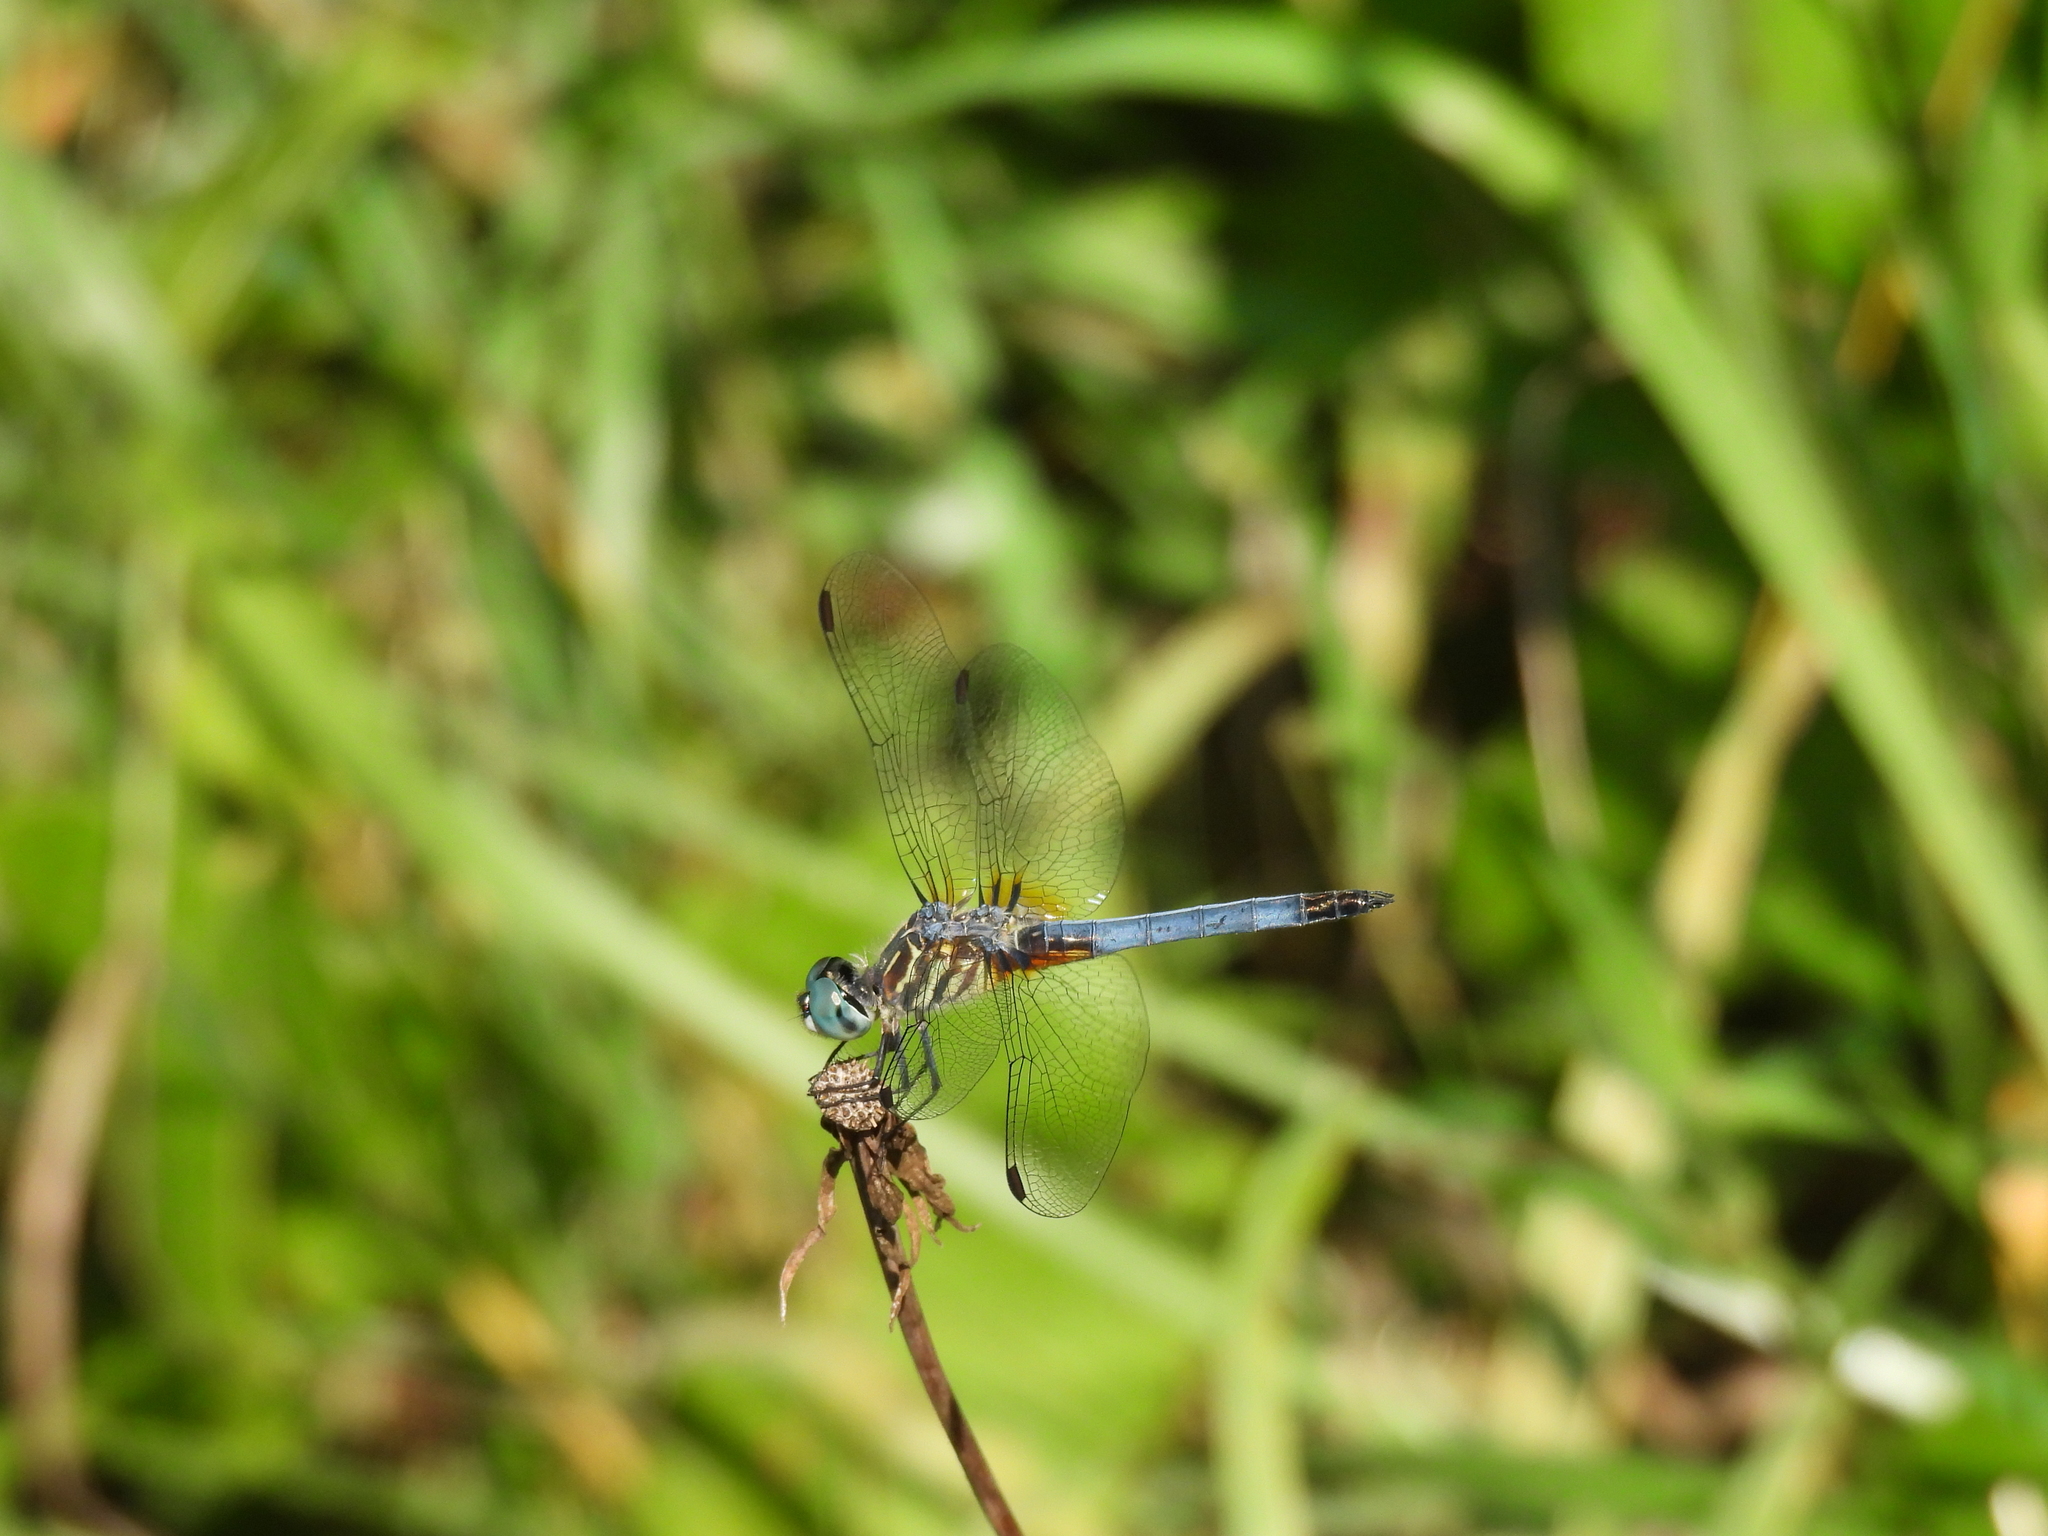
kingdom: Animalia
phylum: Arthropoda
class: Insecta
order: Odonata
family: Libellulidae
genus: Pachydiplax
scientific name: Pachydiplax longipennis
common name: Blue dasher
